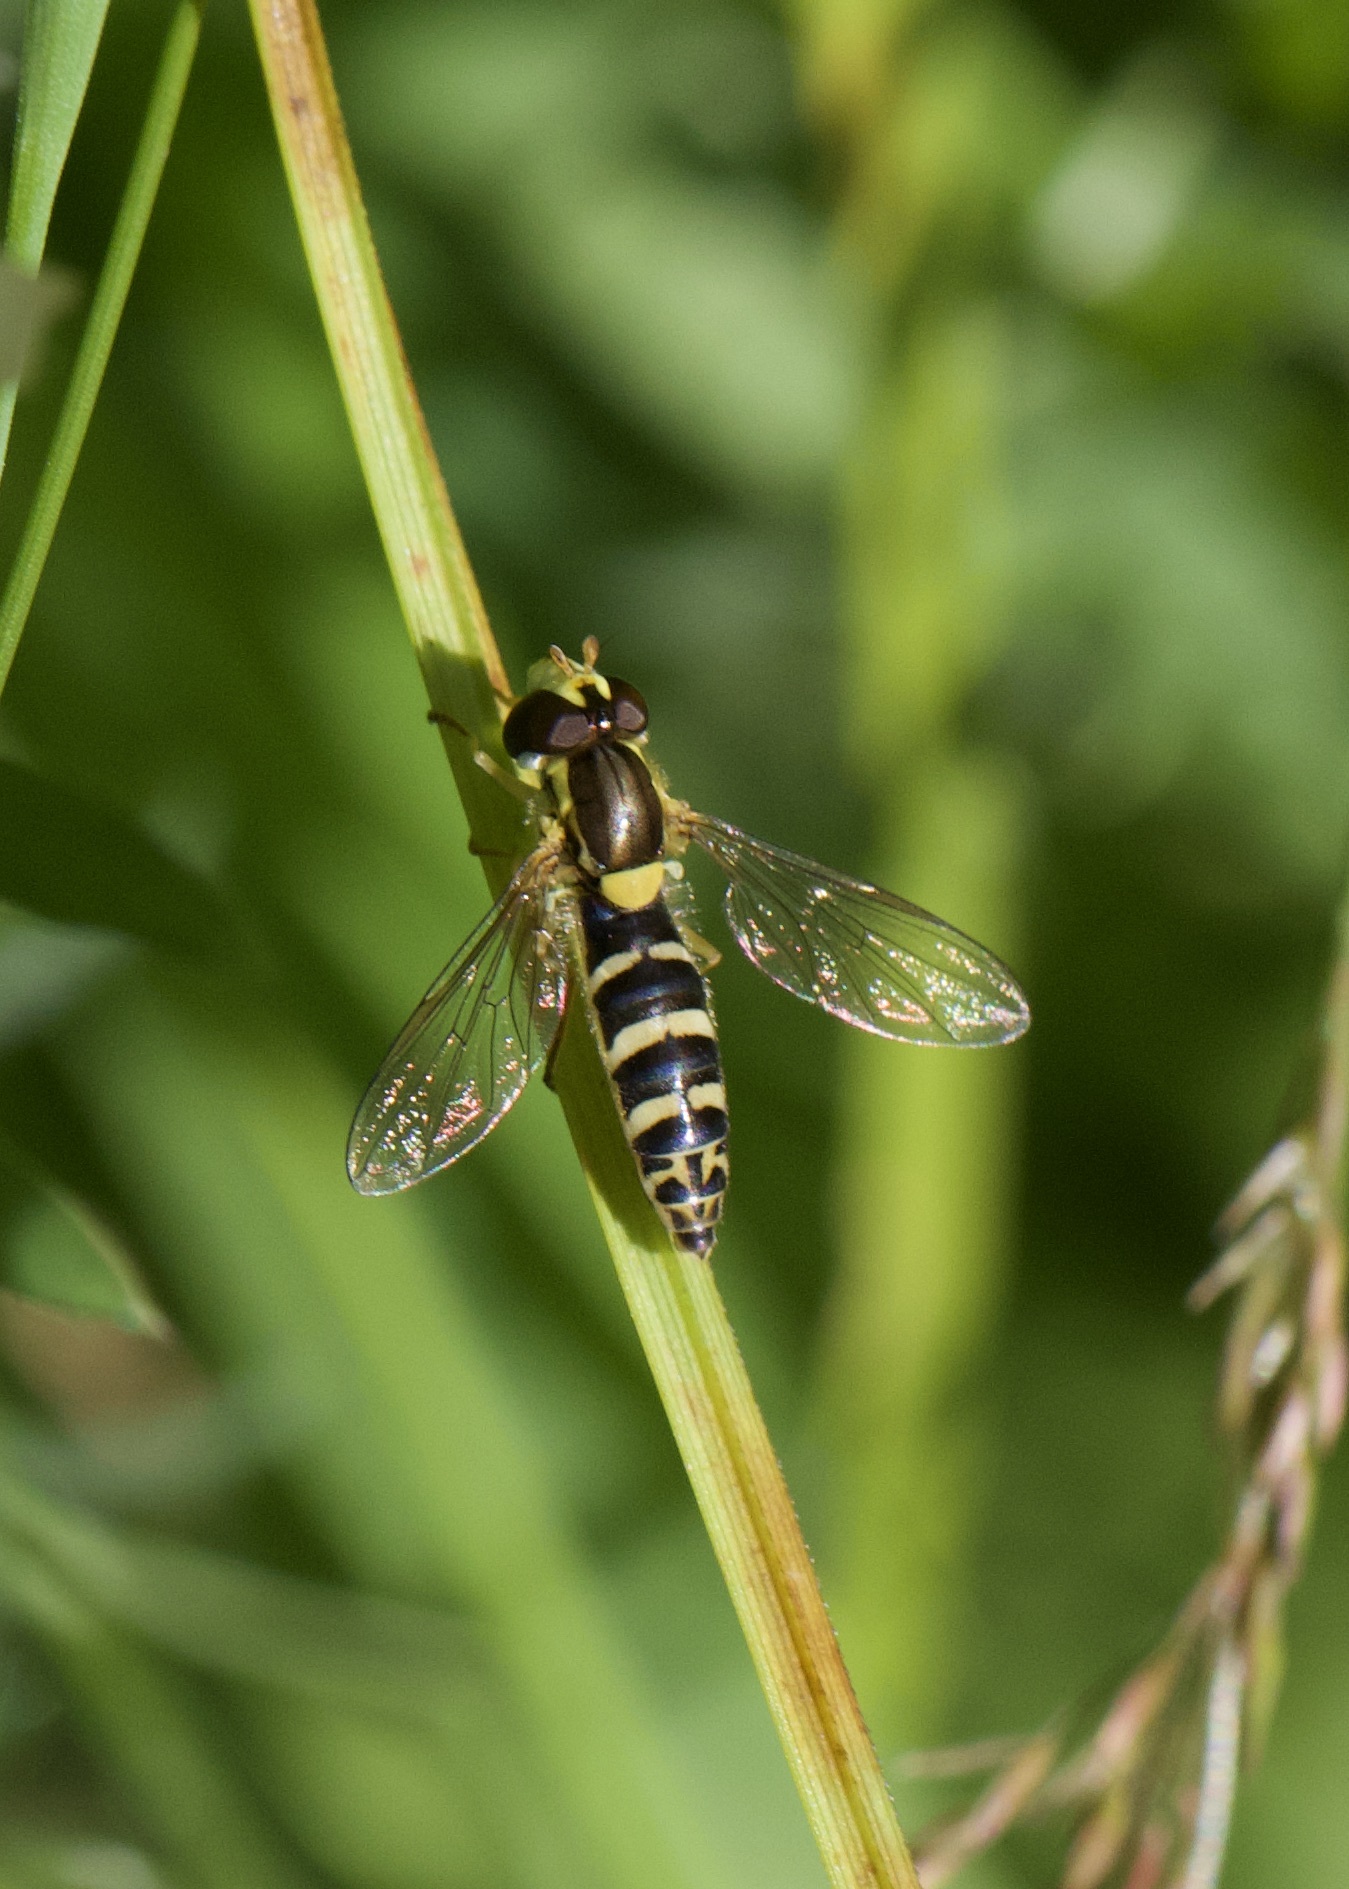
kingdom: Animalia
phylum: Arthropoda
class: Insecta
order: Diptera
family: Syrphidae
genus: Sphaerophoria
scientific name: Sphaerophoria
